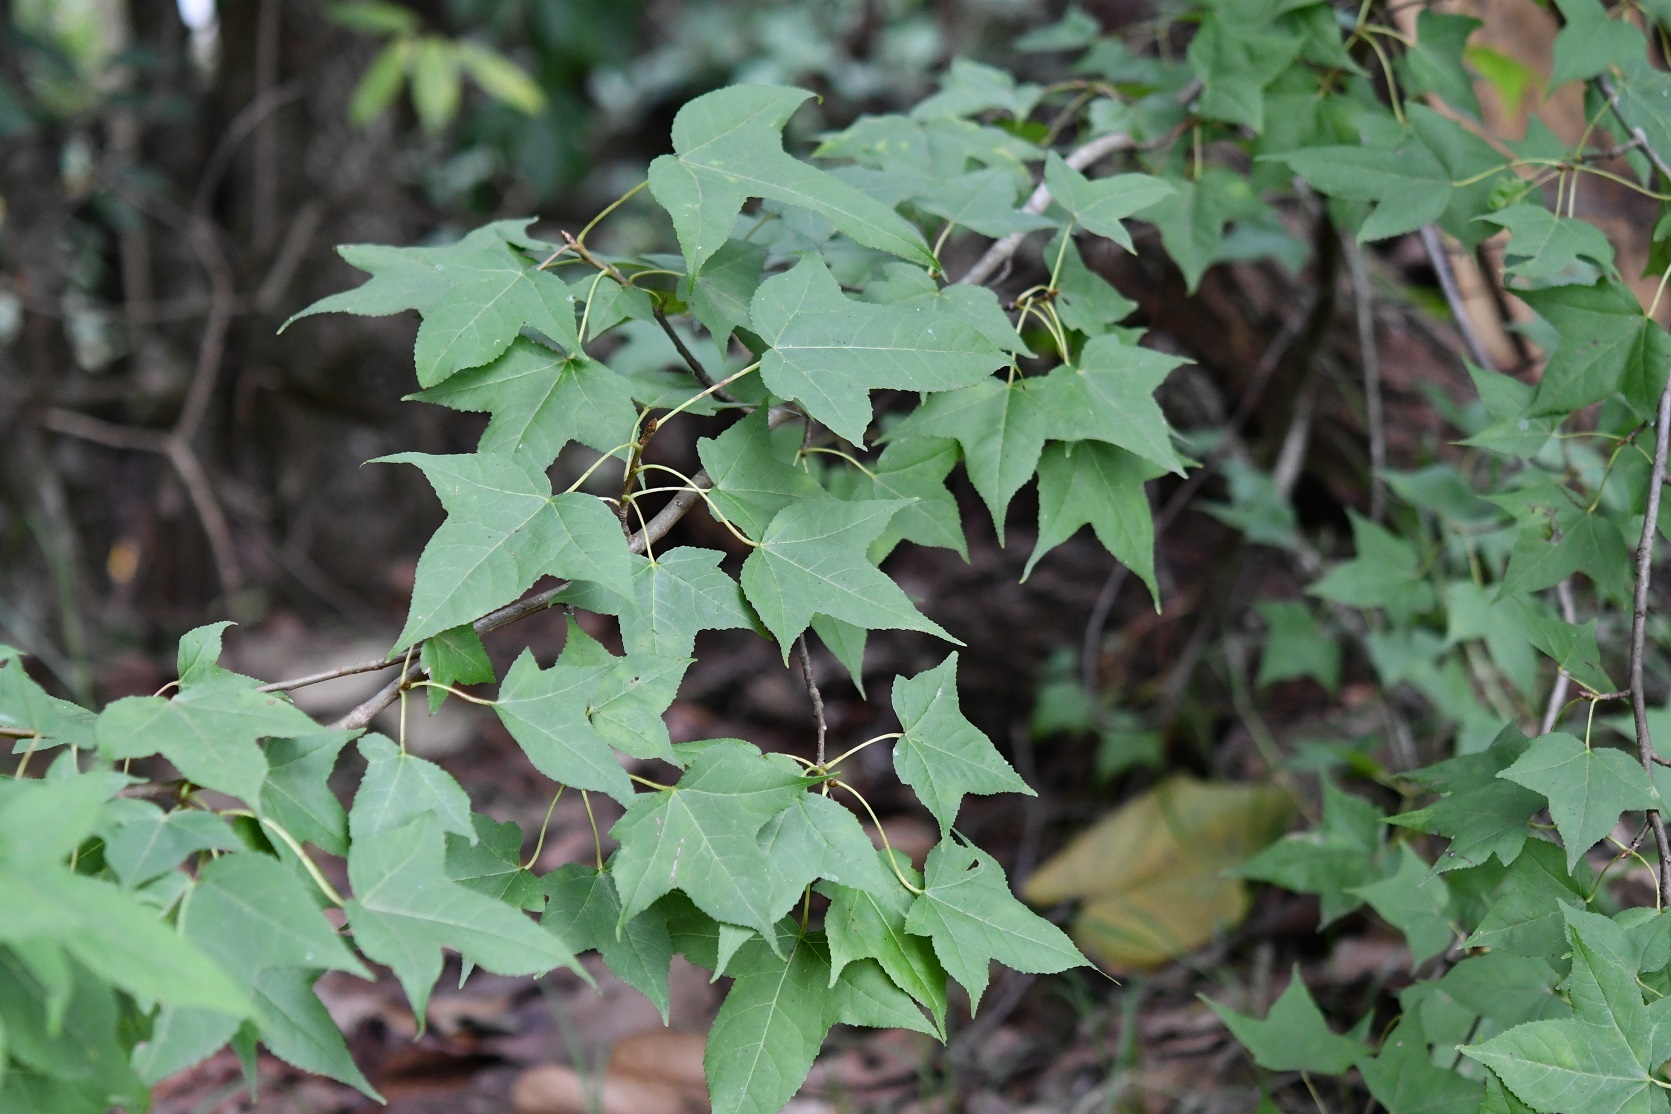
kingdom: Plantae
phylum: Tracheophyta
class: Magnoliopsida
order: Saxifragales
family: Altingiaceae
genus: Liquidambar
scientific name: Liquidambar styraciflua
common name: Sweet gum
